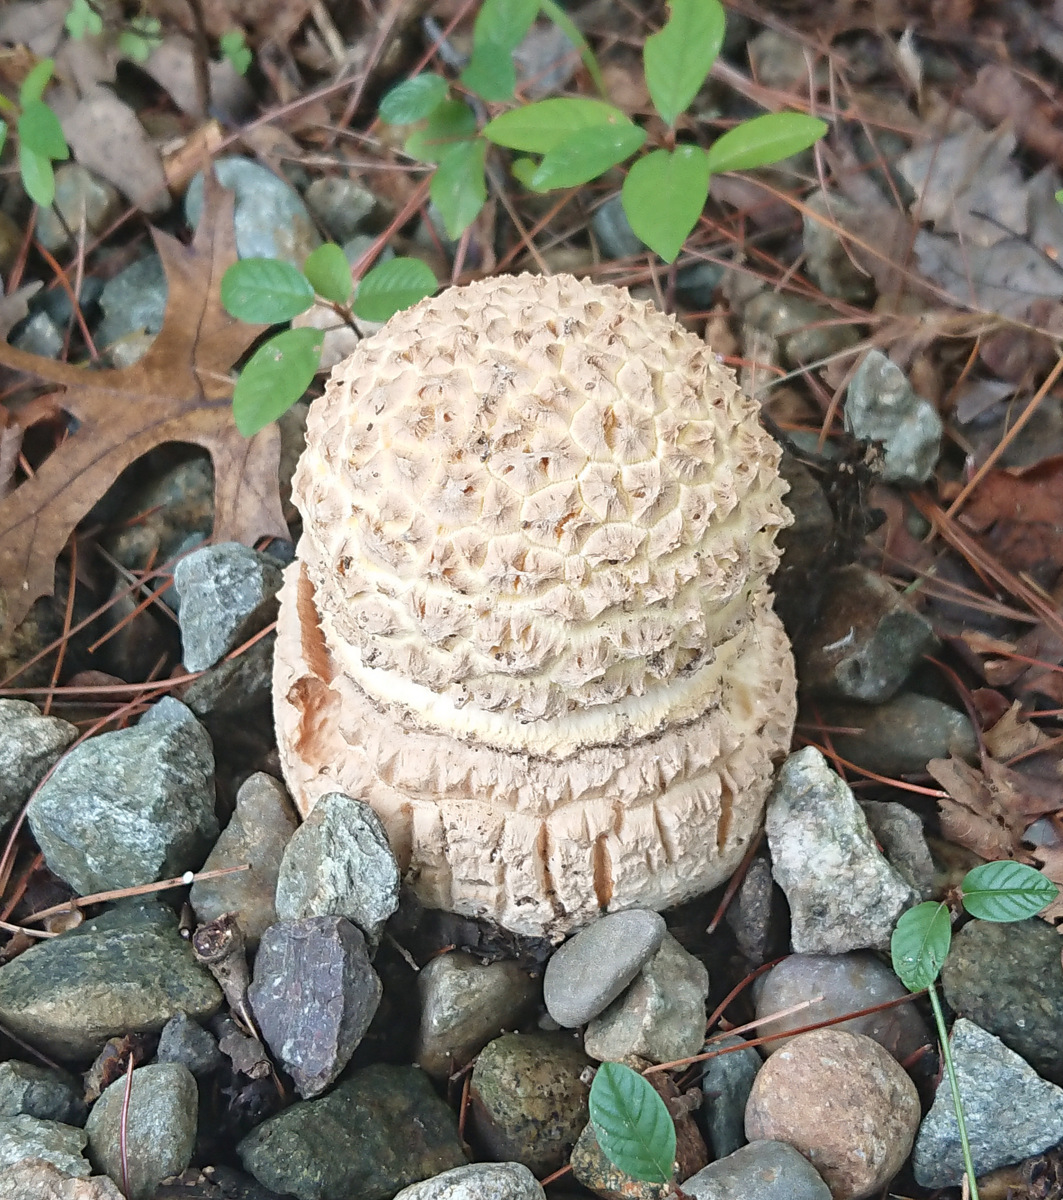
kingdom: Fungi
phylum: Basidiomycota
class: Agaricomycetes
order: Agaricales
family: Amanitaceae
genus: Amanita
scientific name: Amanita muscaria
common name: Fly agaric
